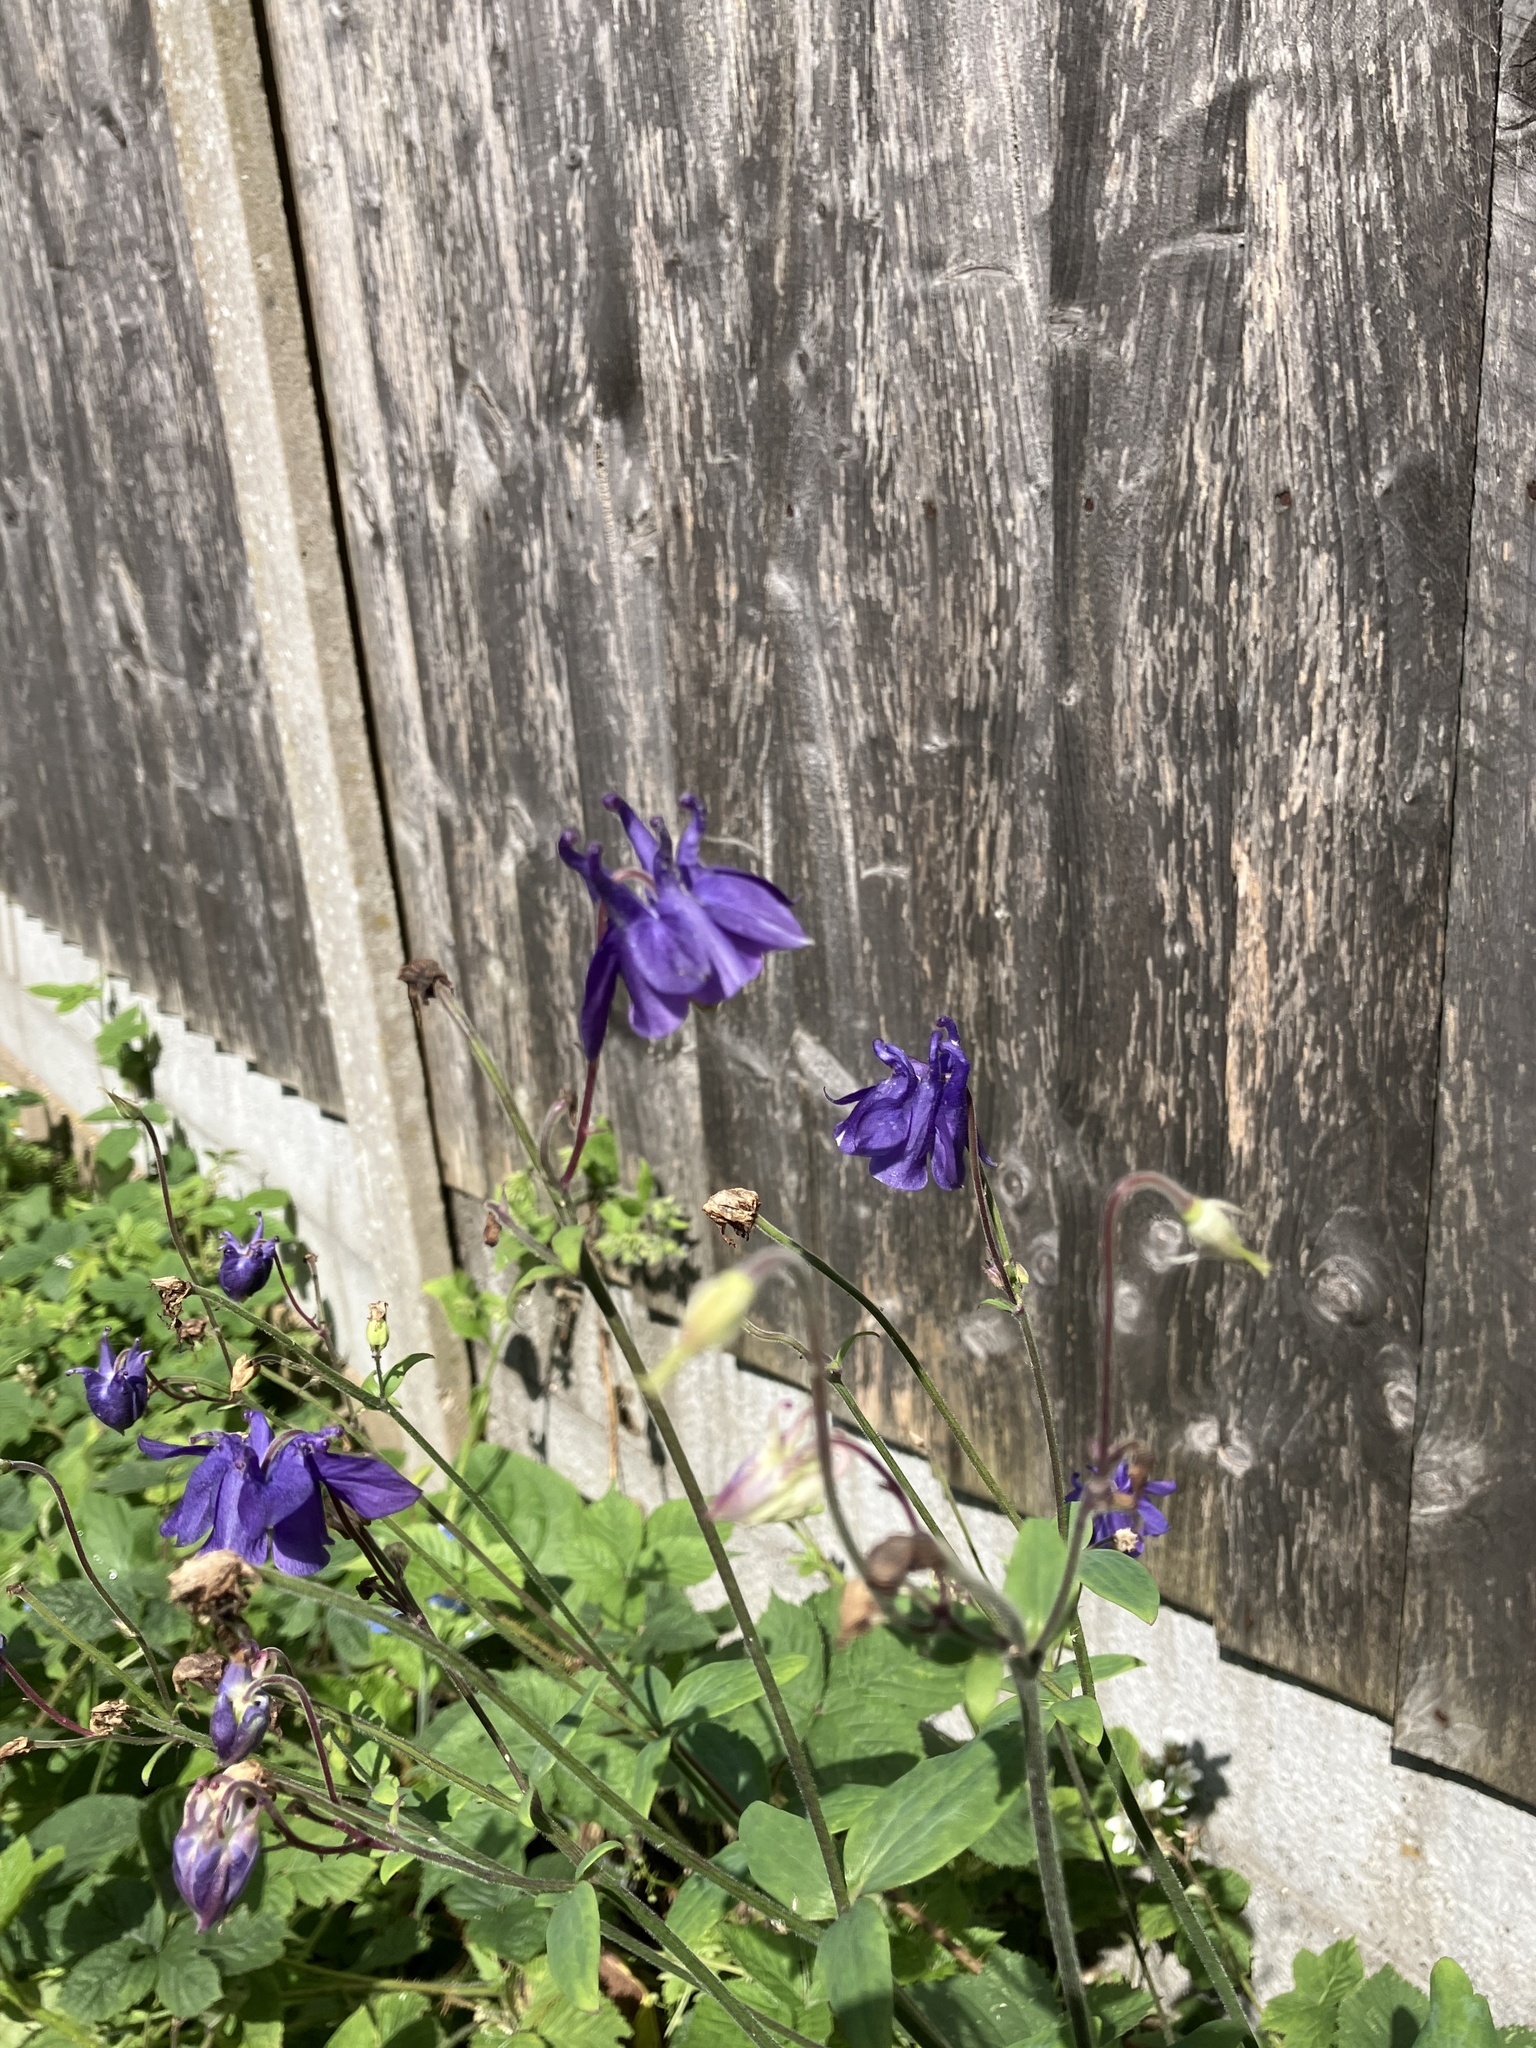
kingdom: Plantae
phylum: Tracheophyta
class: Magnoliopsida
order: Ranunculales
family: Ranunculaceae
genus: Aquilegia
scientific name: Aquilegia vulgaris
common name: Columbine
